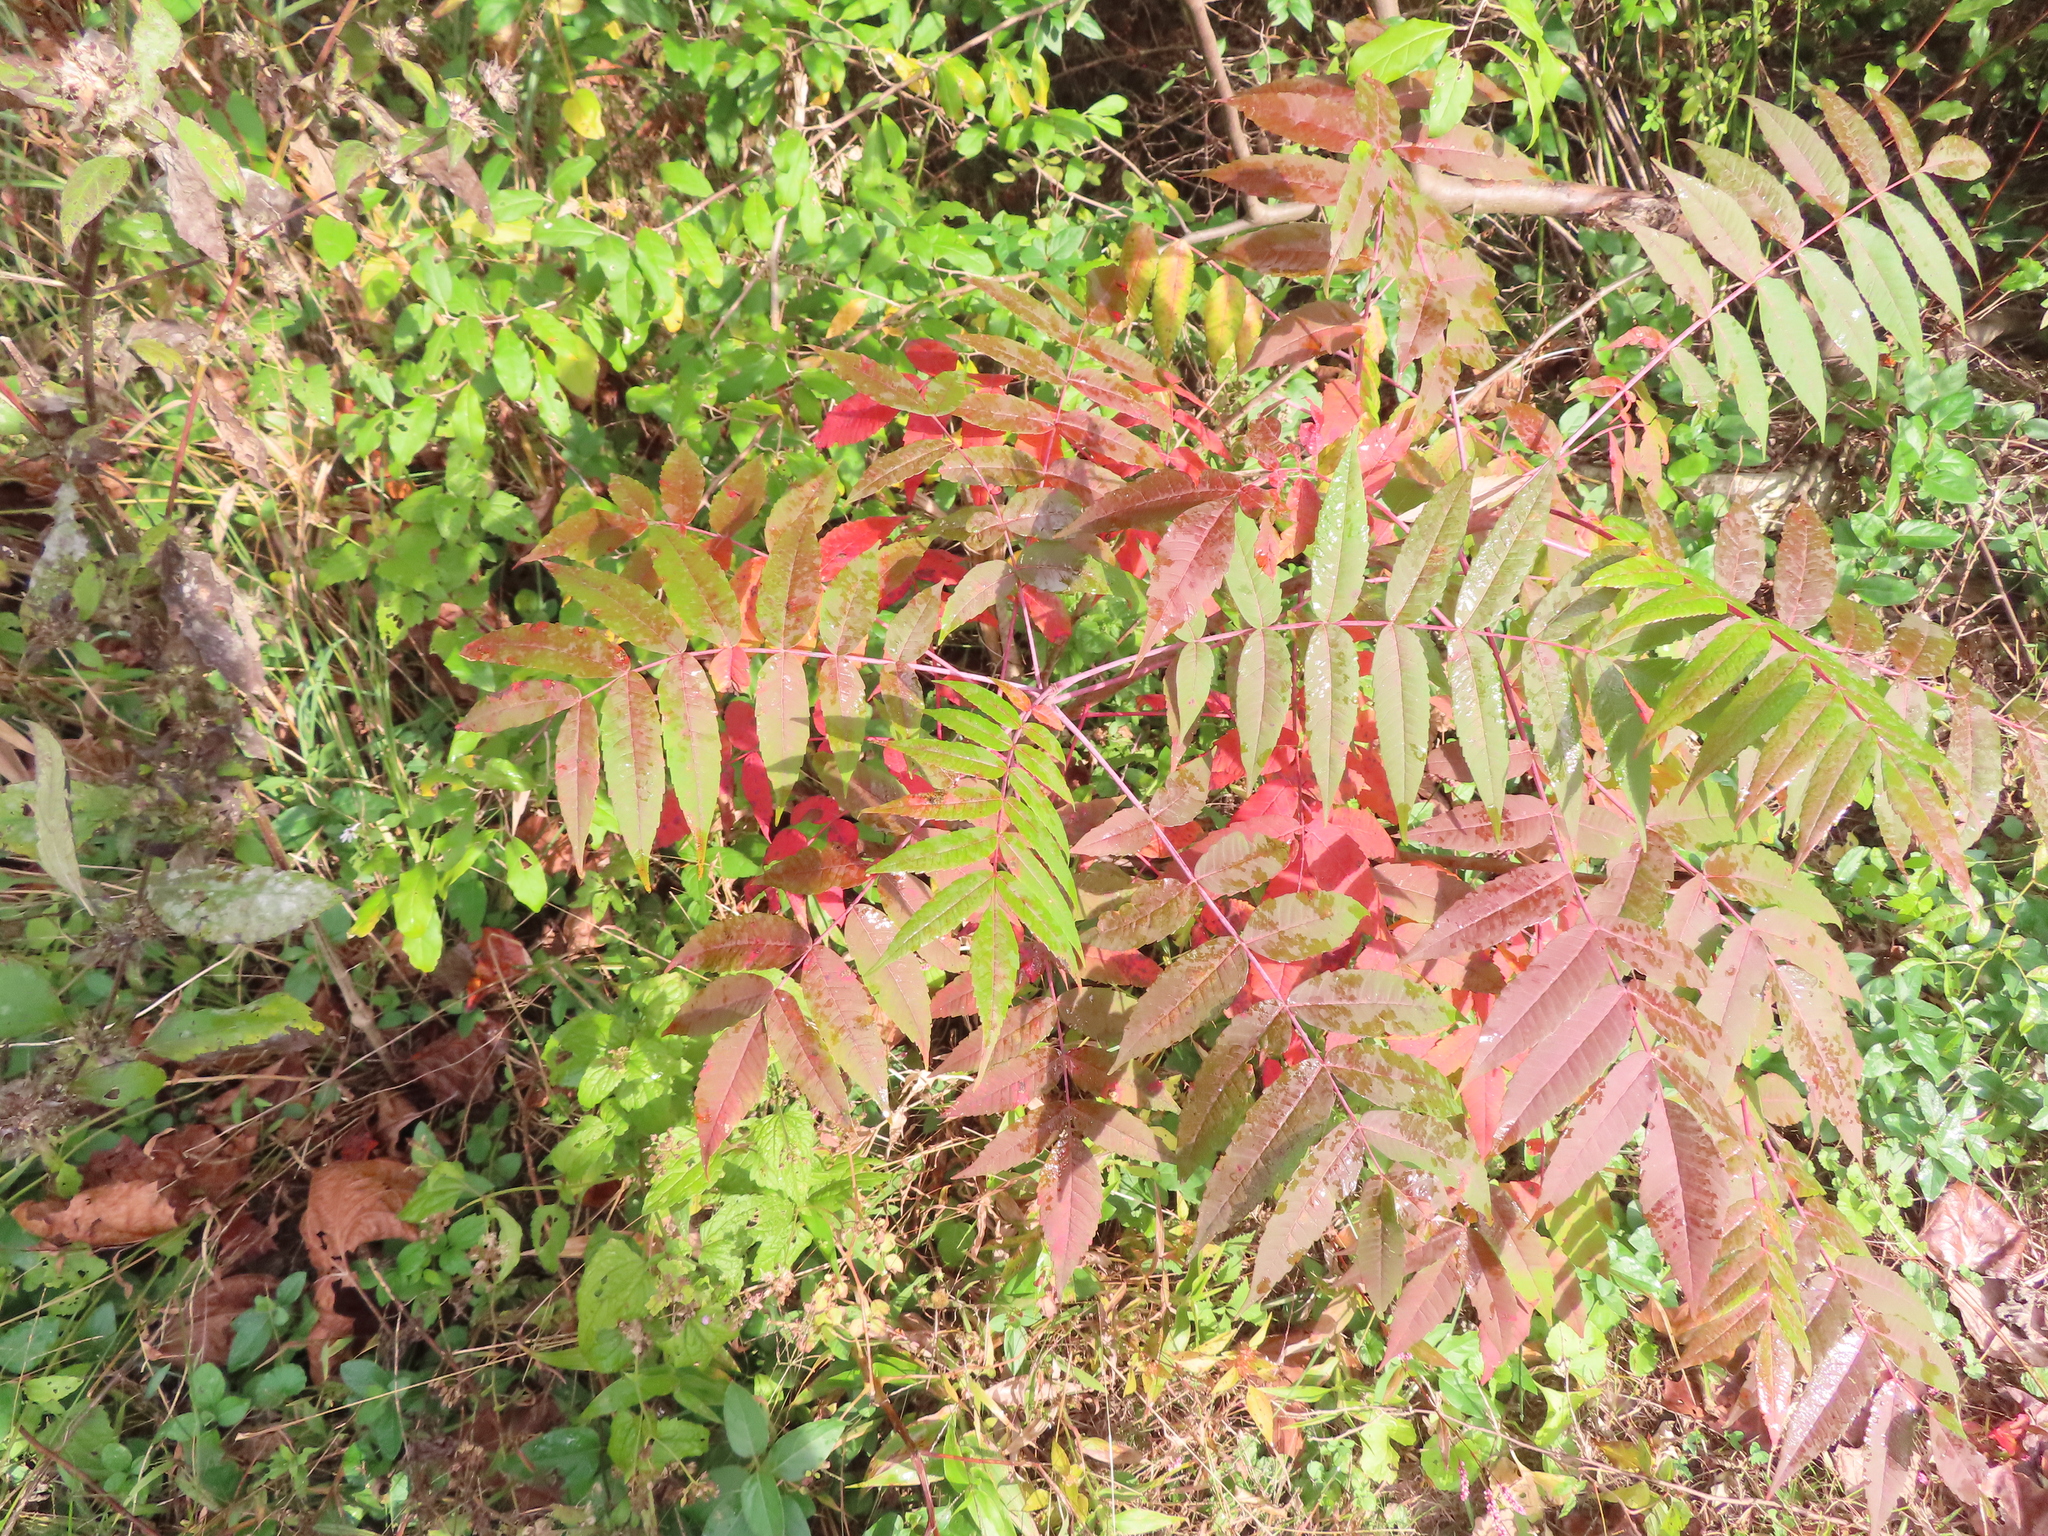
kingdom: Plantae
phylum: Tracheophyta
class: Magnoliopsida
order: Sapindales
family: Anacardiaceae
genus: Rhus
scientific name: Rhus glabra
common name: Scarlet sumac
